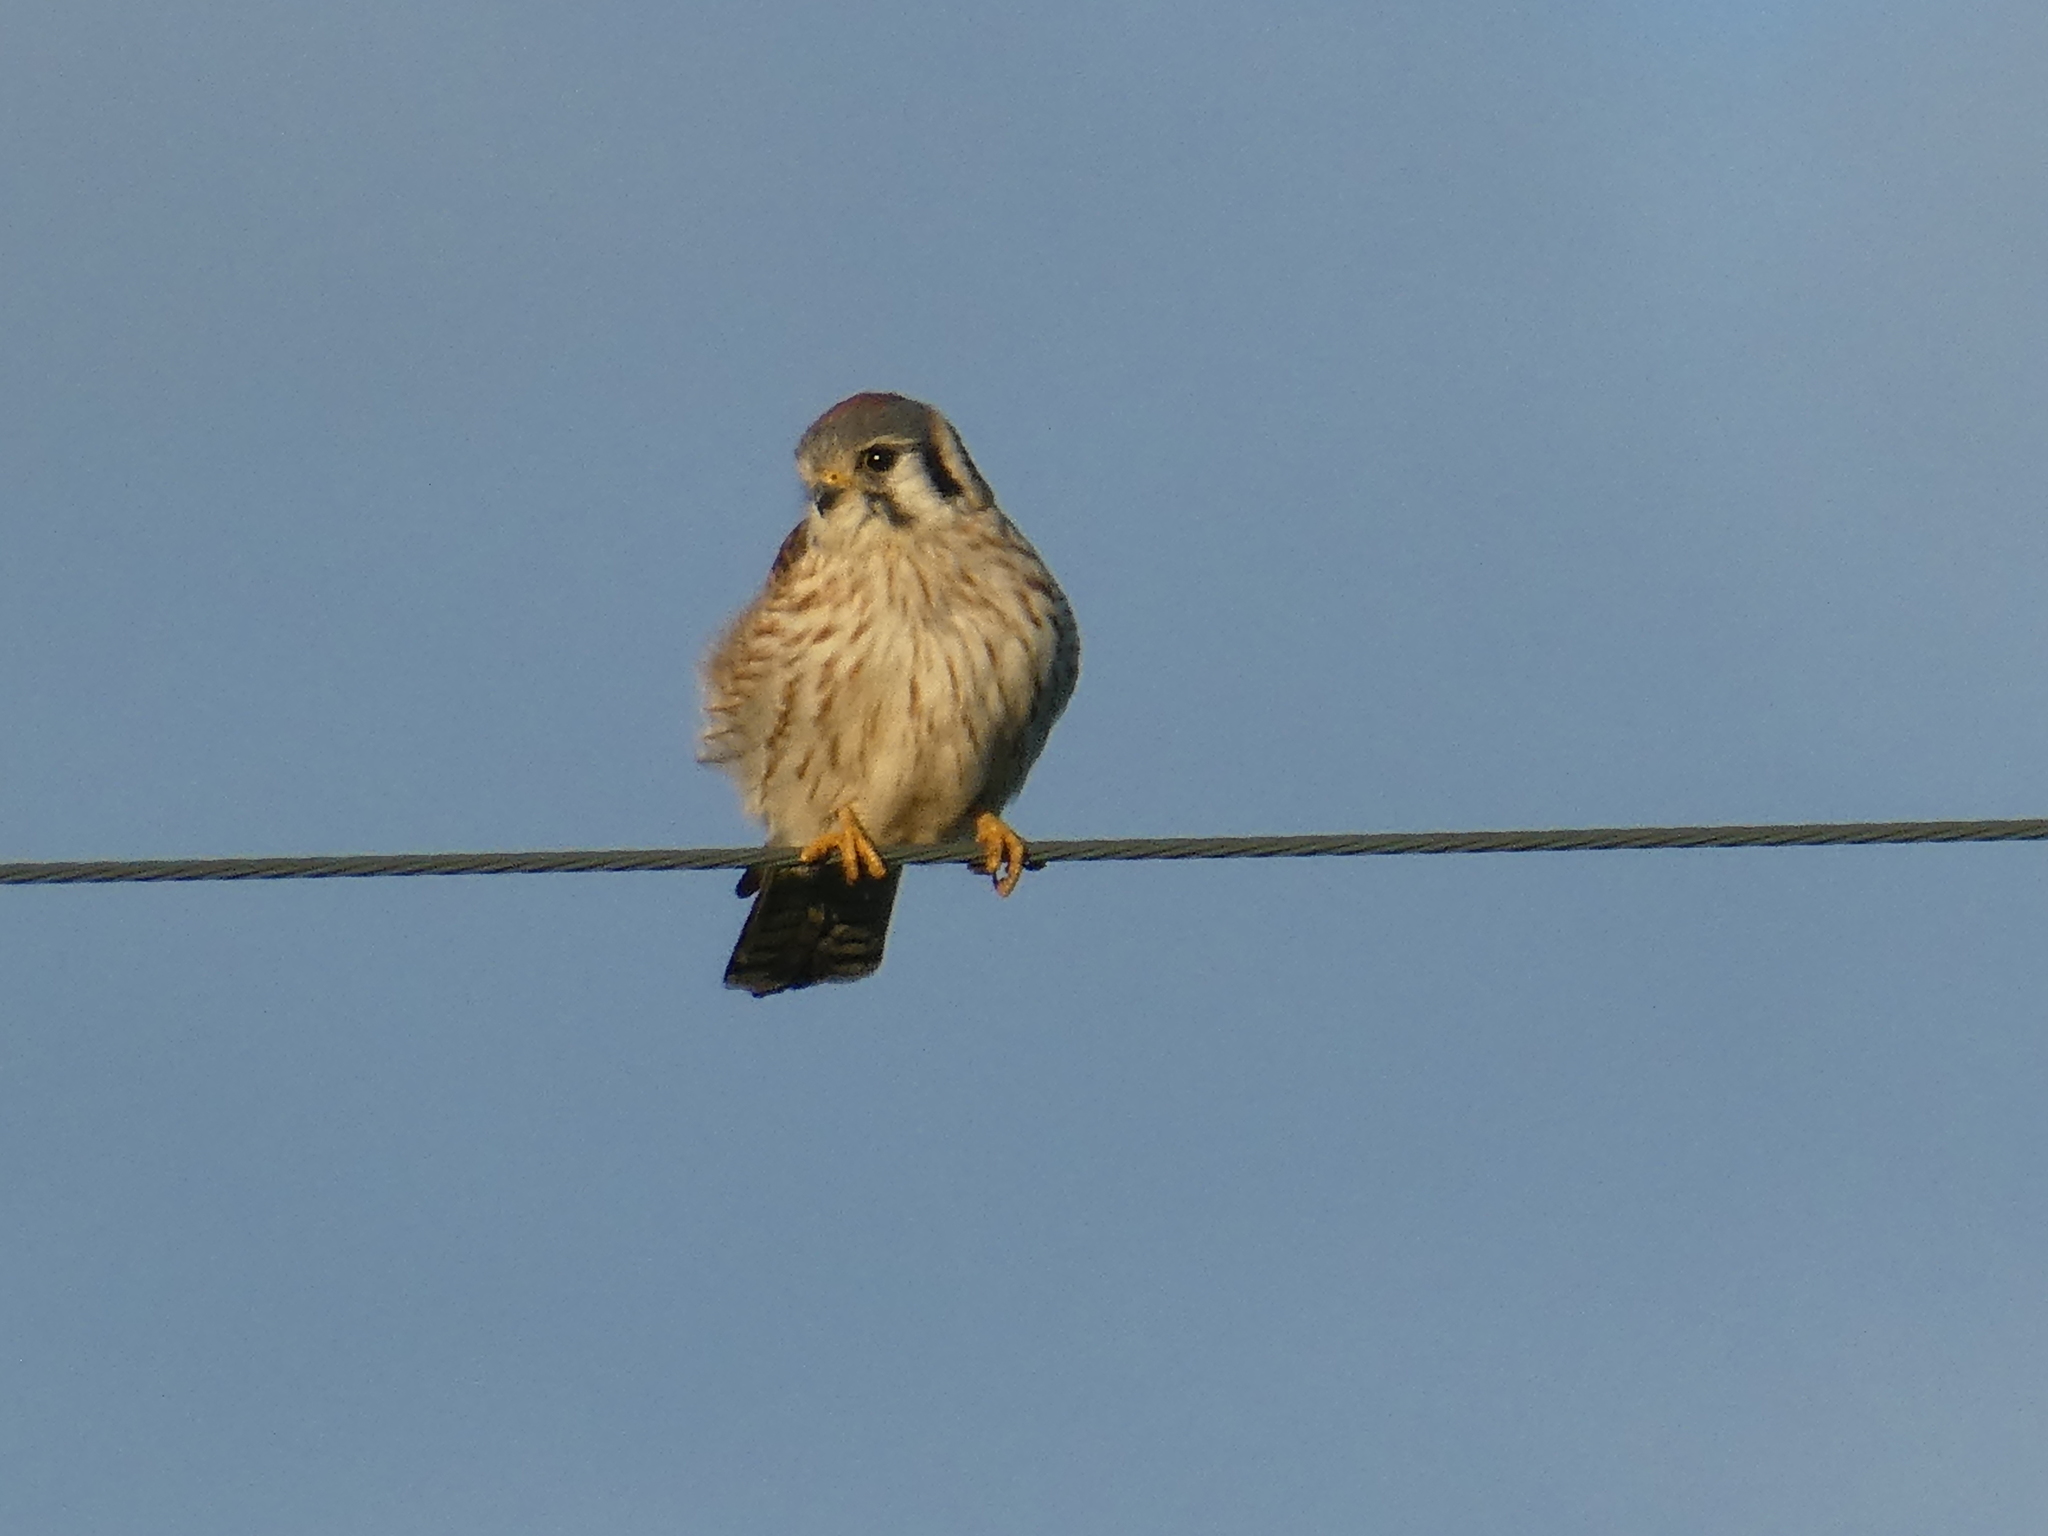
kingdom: Animalia
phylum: Chordata
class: Aves
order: Falconiformes
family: Falconidae
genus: Falco
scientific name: Falco sparverius
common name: American kestrel
